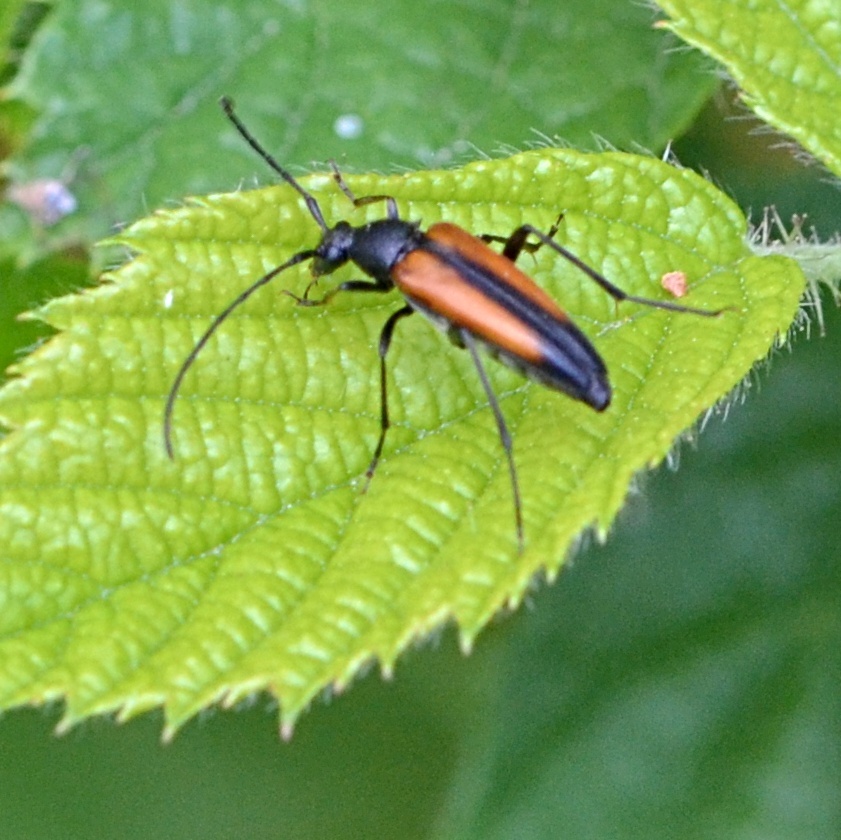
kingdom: Animalia
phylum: Arthropoda
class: Insecta
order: Coleoptera
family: Cerambycidae
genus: Stenurella
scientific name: Stenurella melanura
